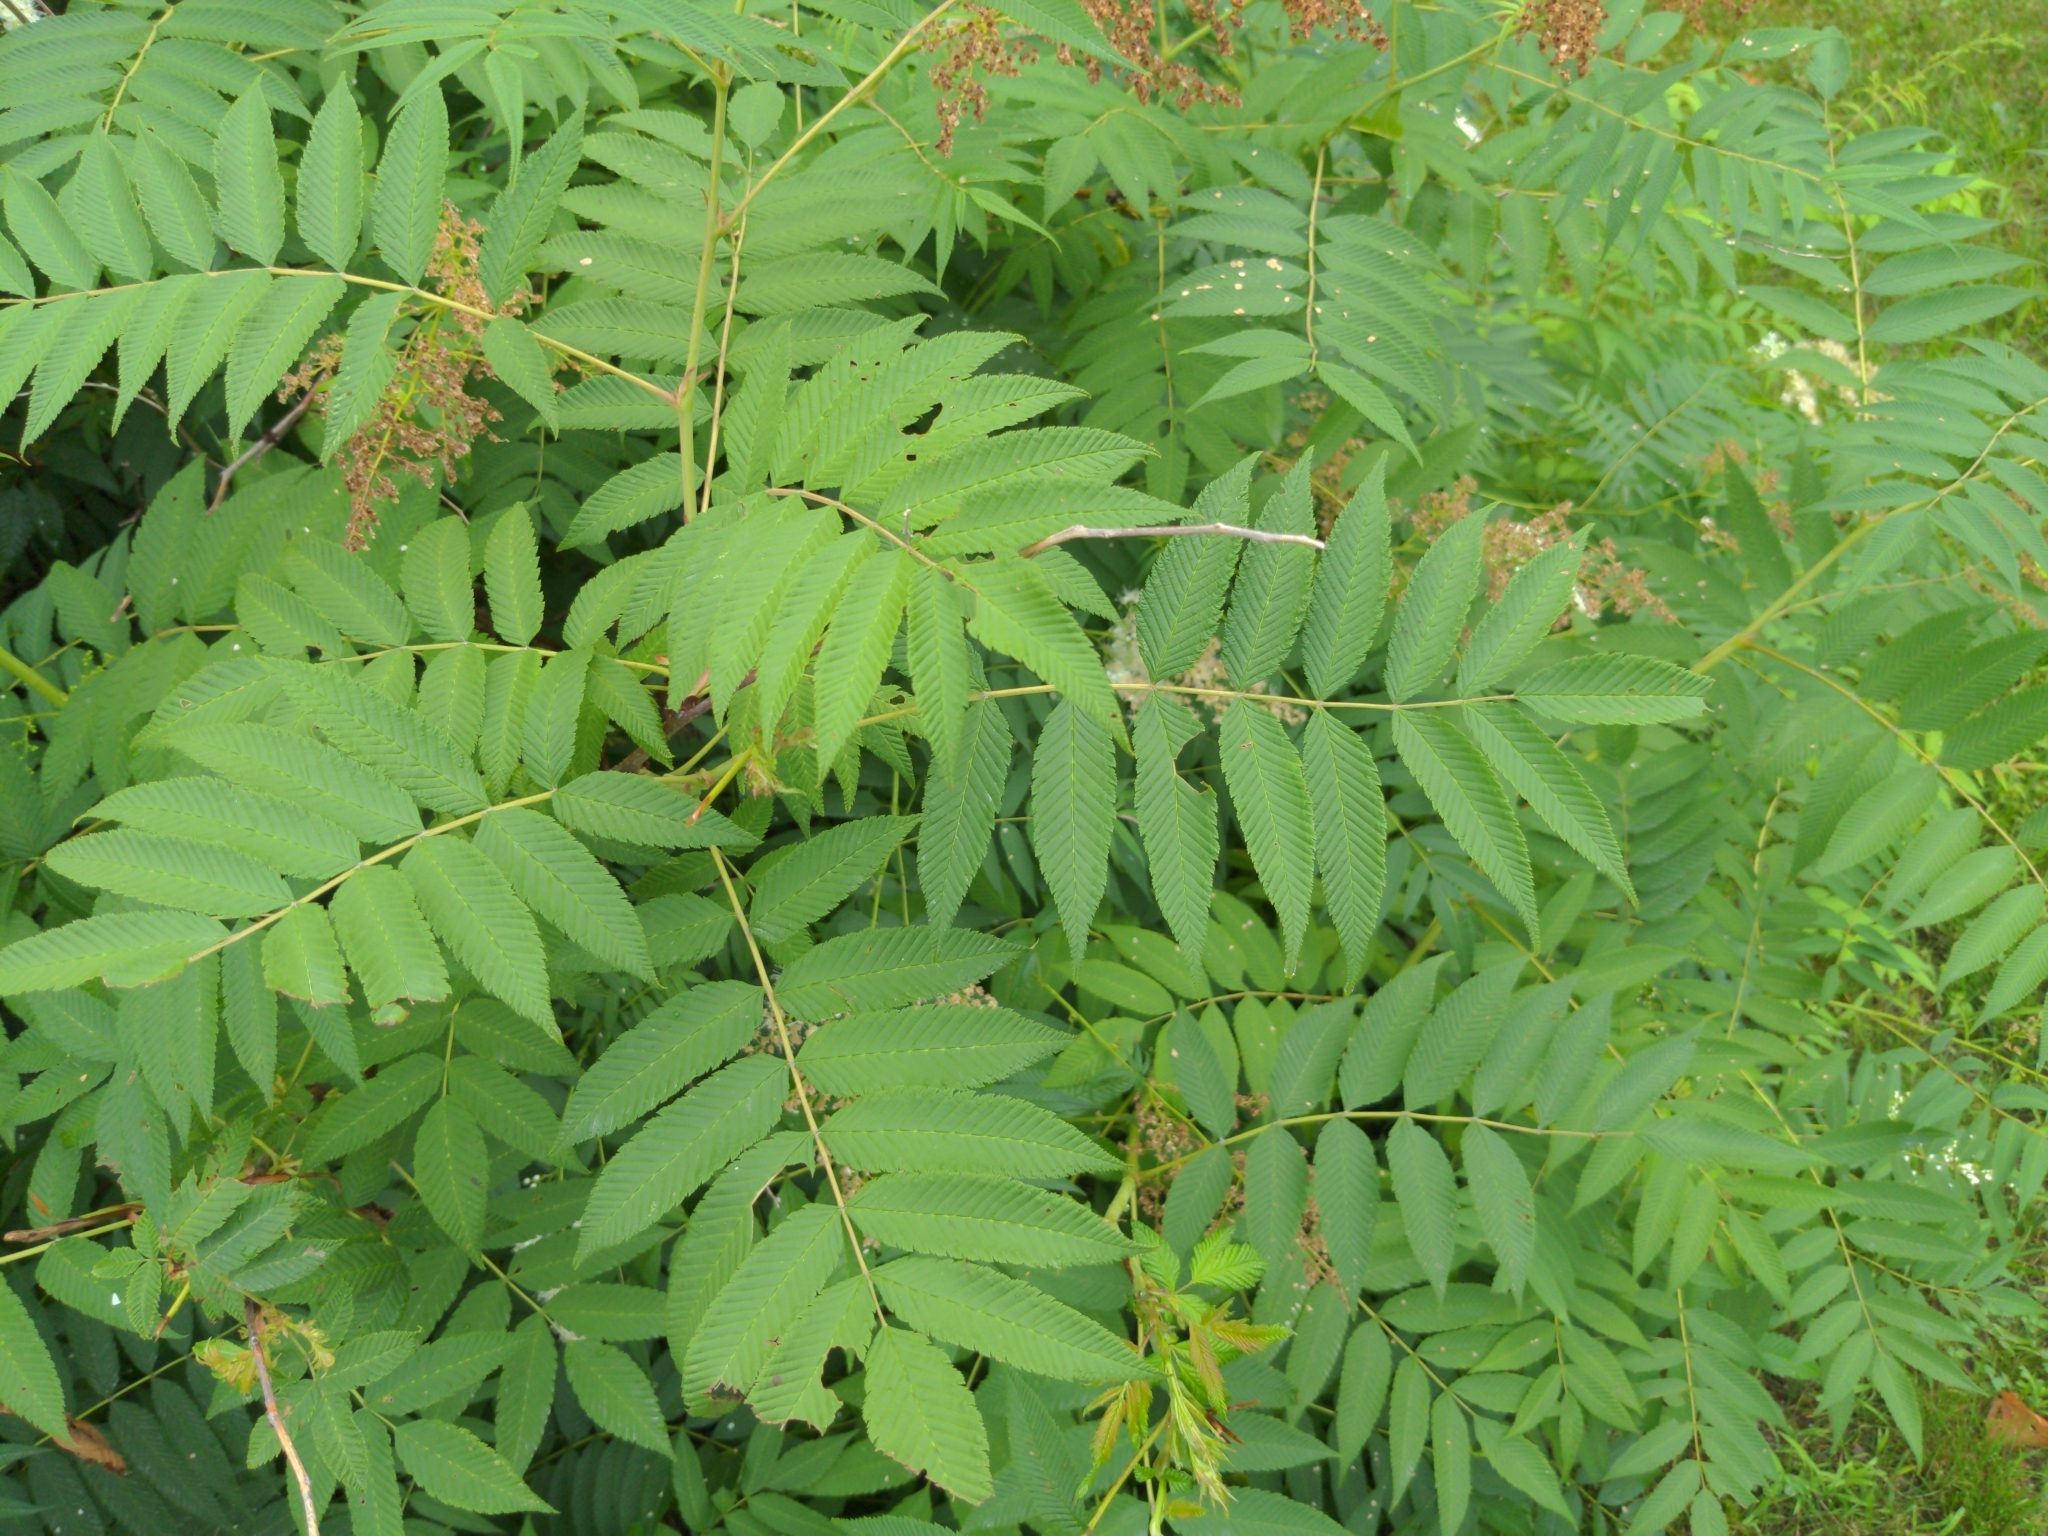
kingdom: Plantae
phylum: Tracheophyta
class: Magnoliopsida
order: Rosales
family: Rosaceae
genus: Sorbaria
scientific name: Sorbaria sorbifolia
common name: False spiraea
